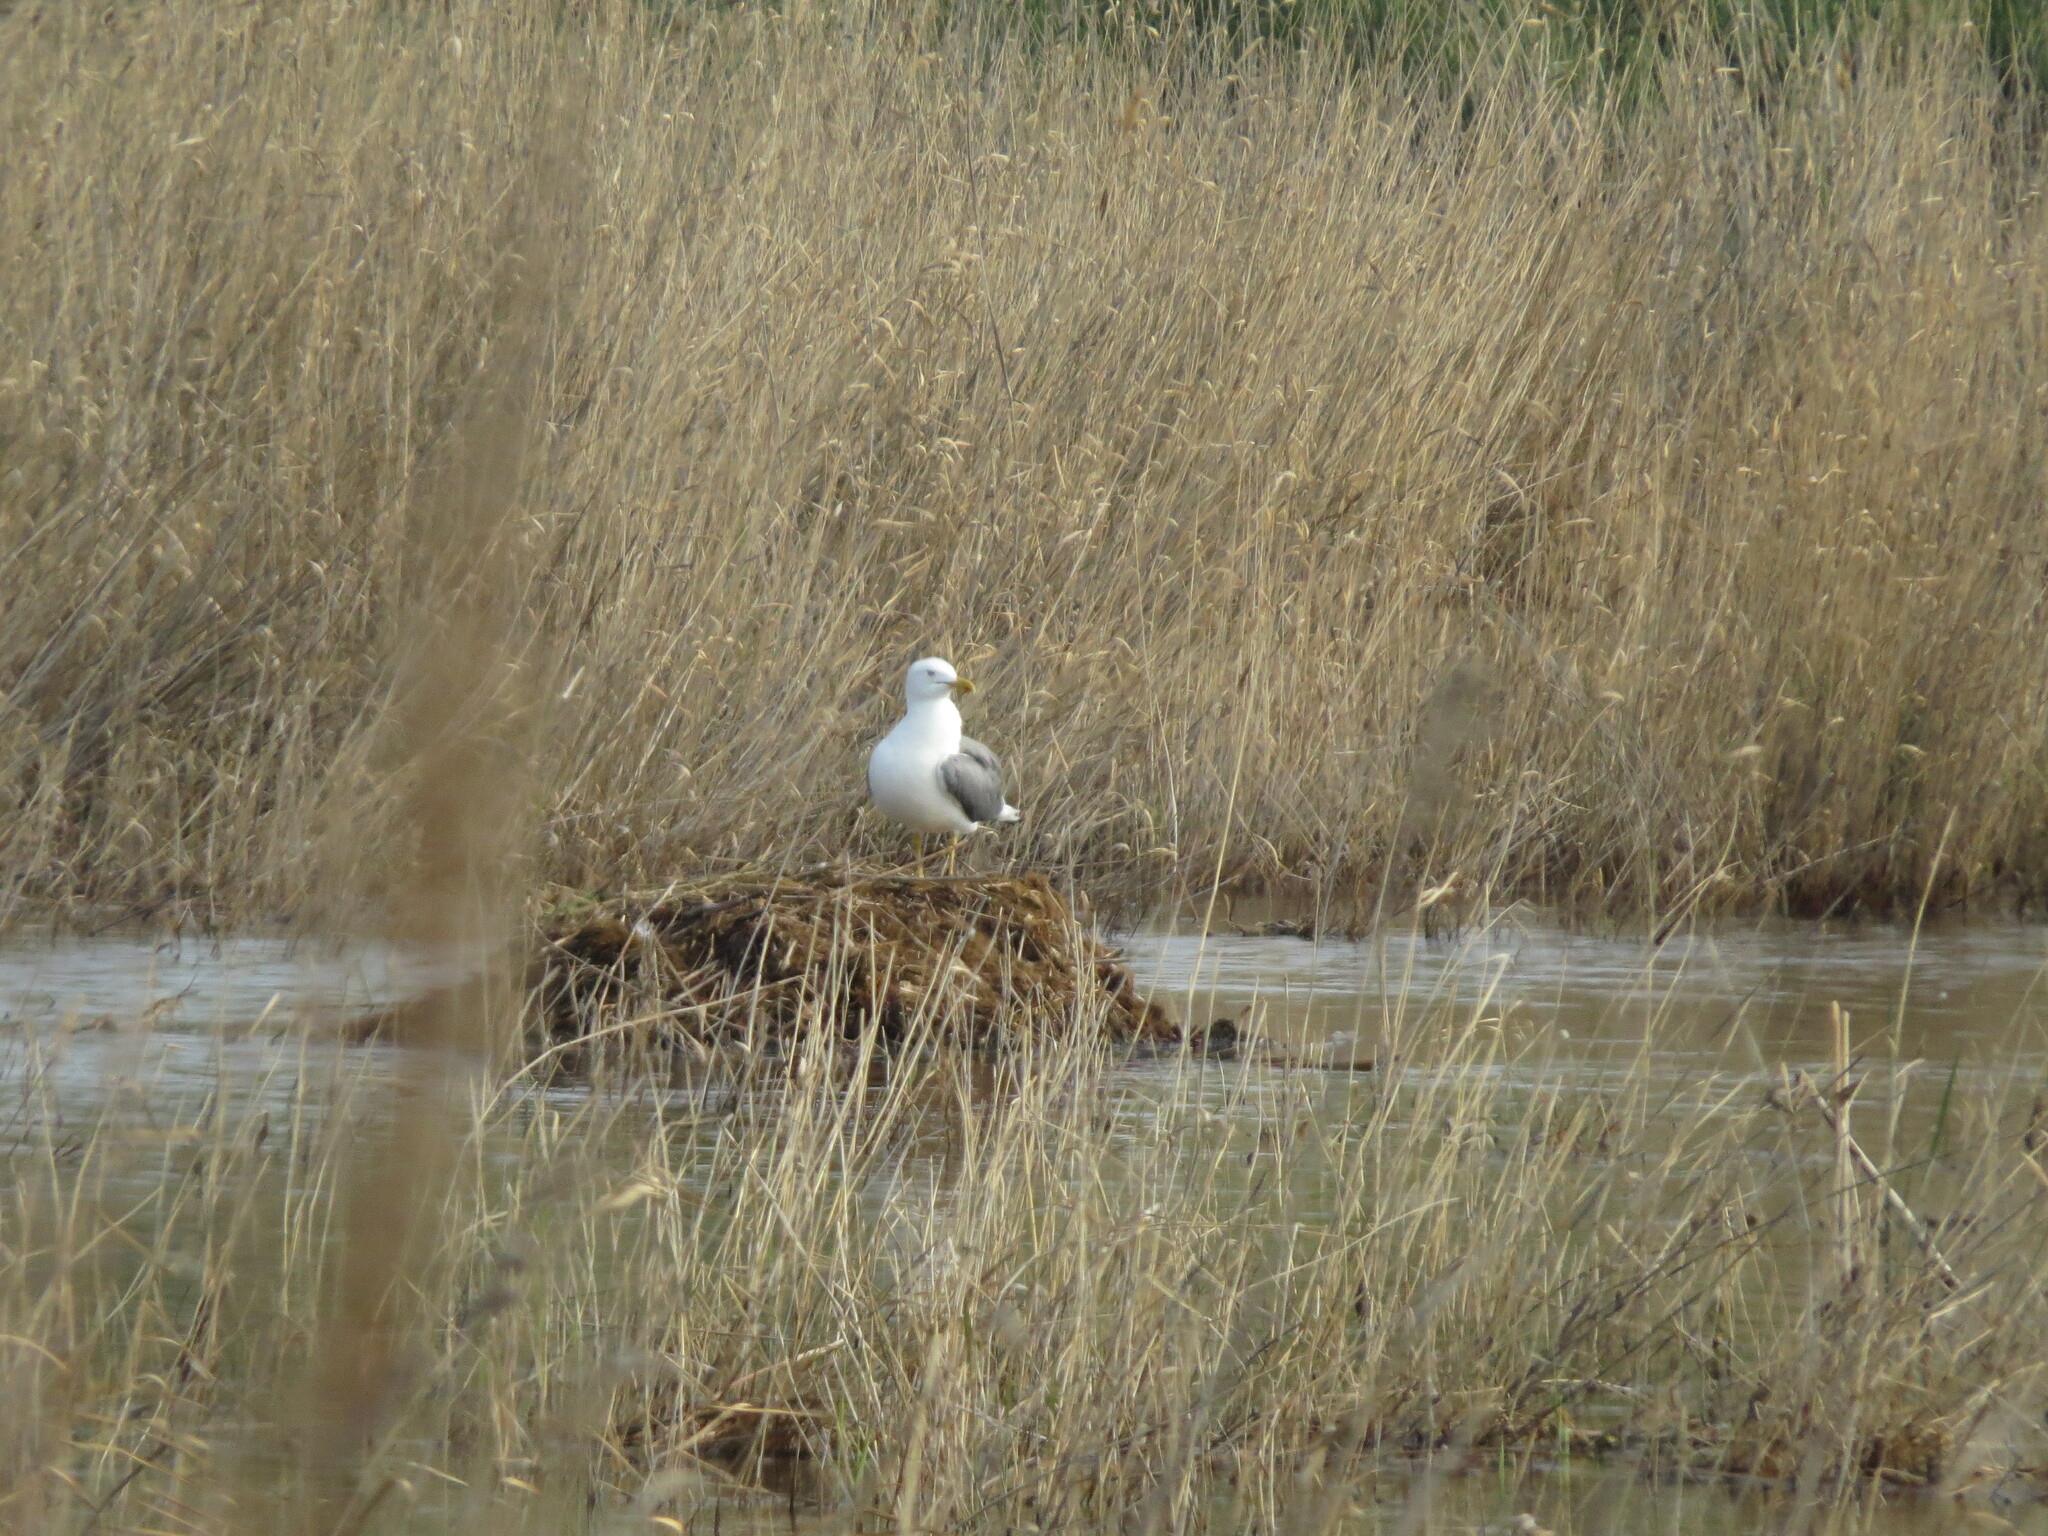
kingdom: Animalia
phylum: Chordata
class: Aves
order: Charadriiformes
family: Laridae
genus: Larus
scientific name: Larus fuscus
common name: Lesser black-backed gull
